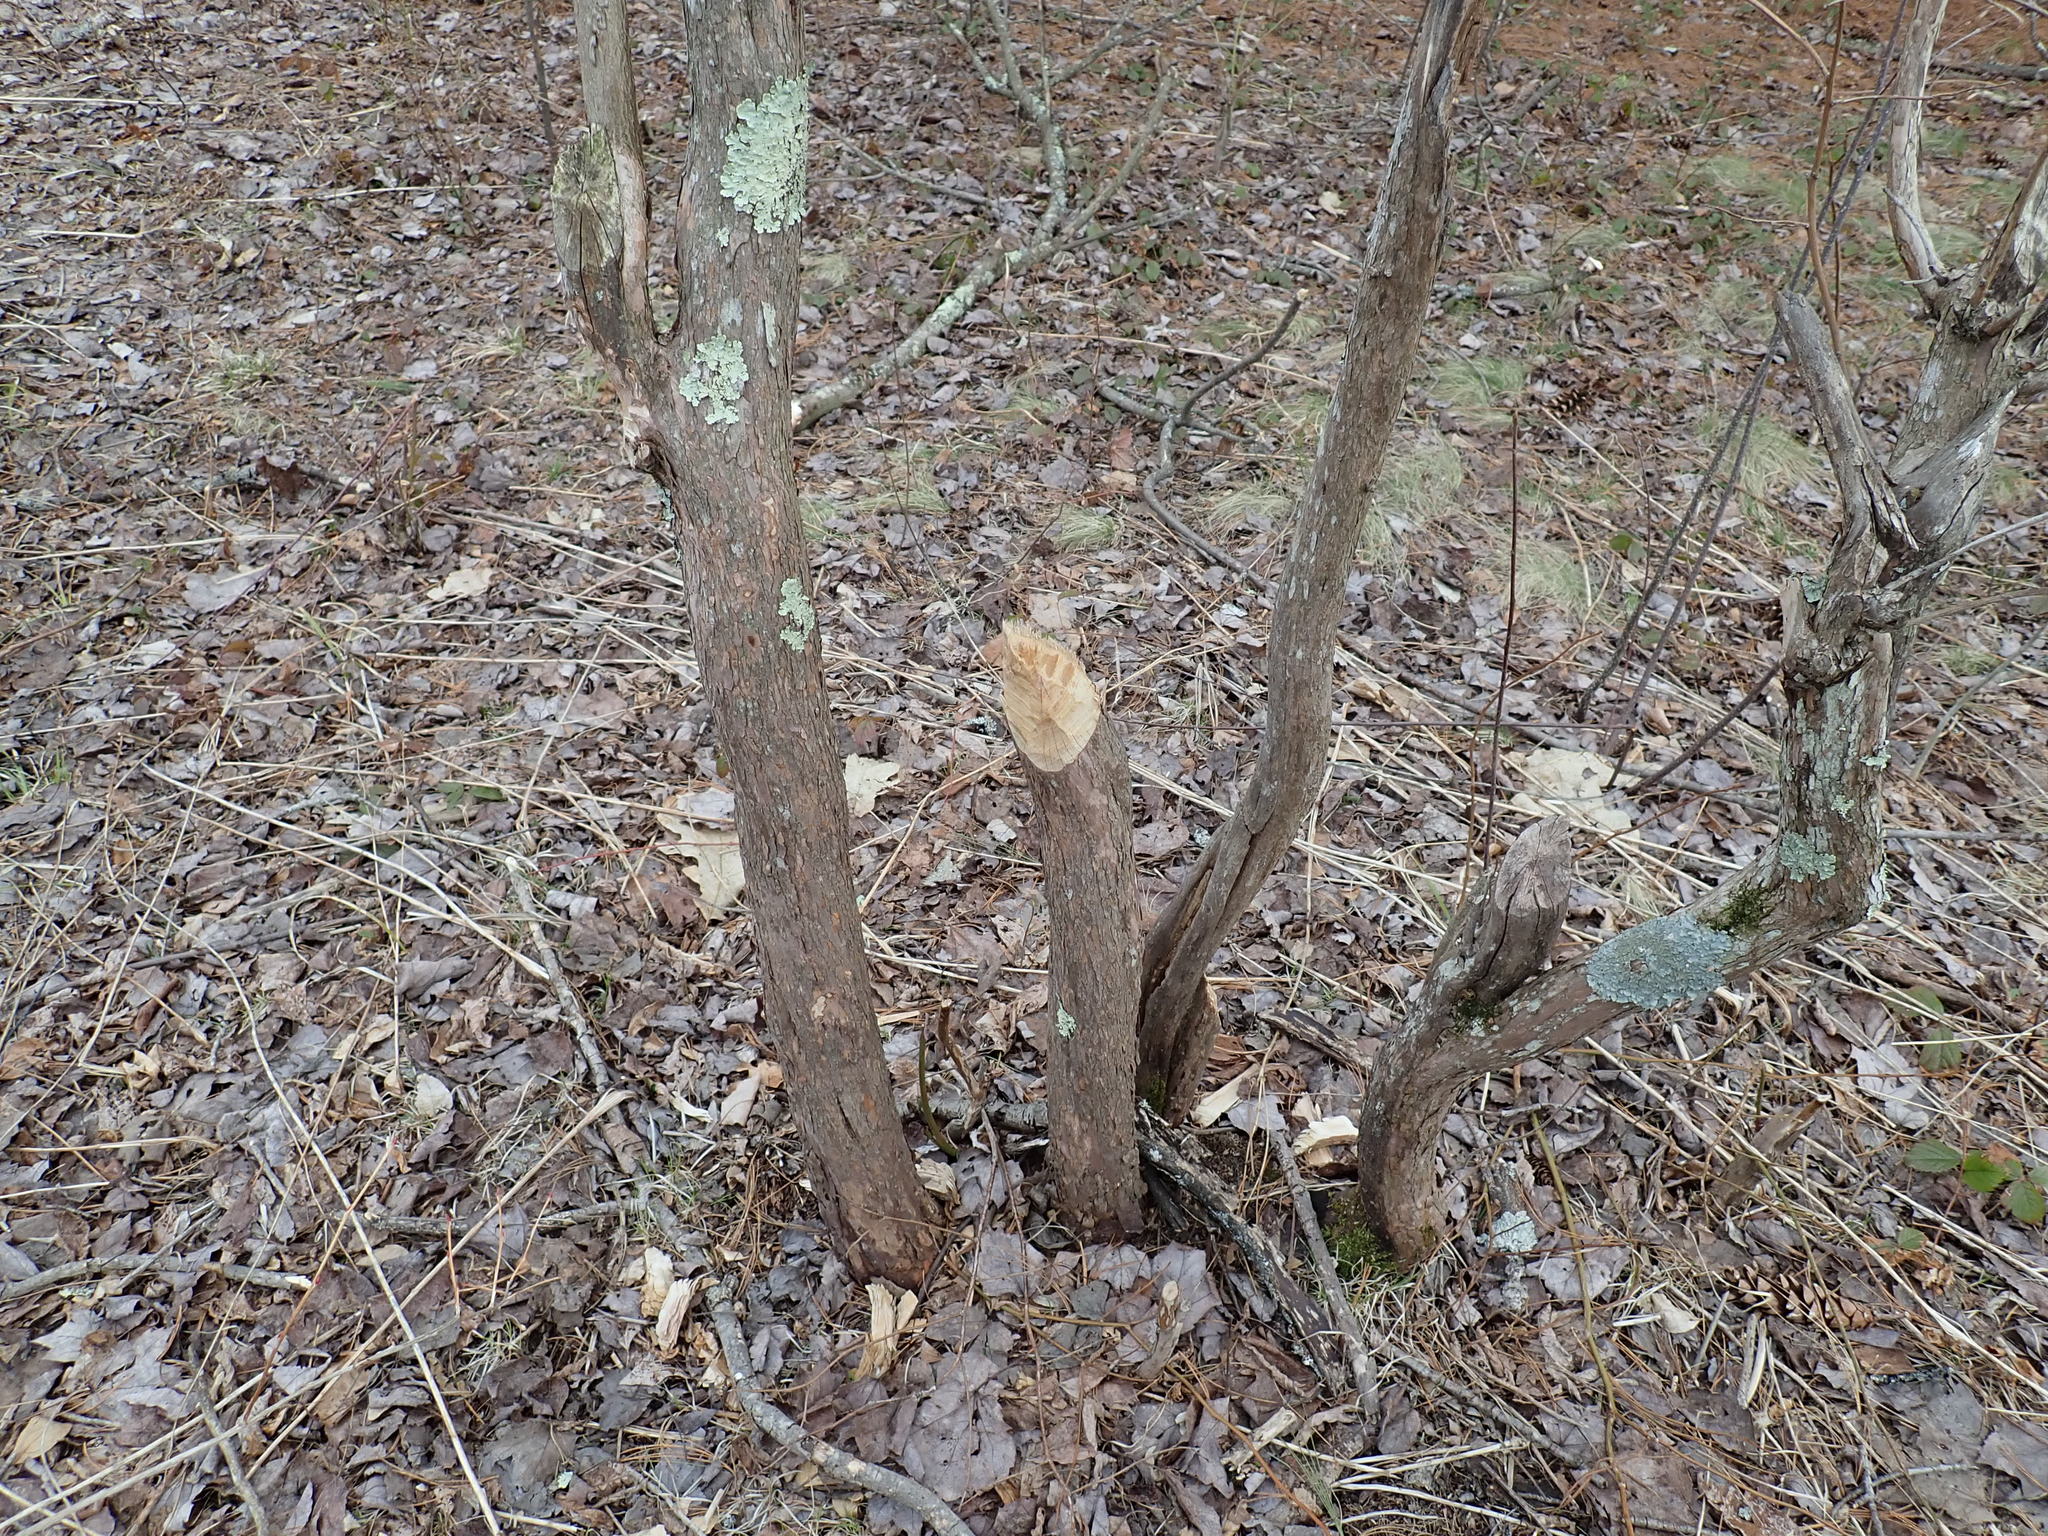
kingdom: Animalia
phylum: Chordata
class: Mammalia
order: Rodentia
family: Castoridae
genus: Castor
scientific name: Castor canadensis
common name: American beaver
